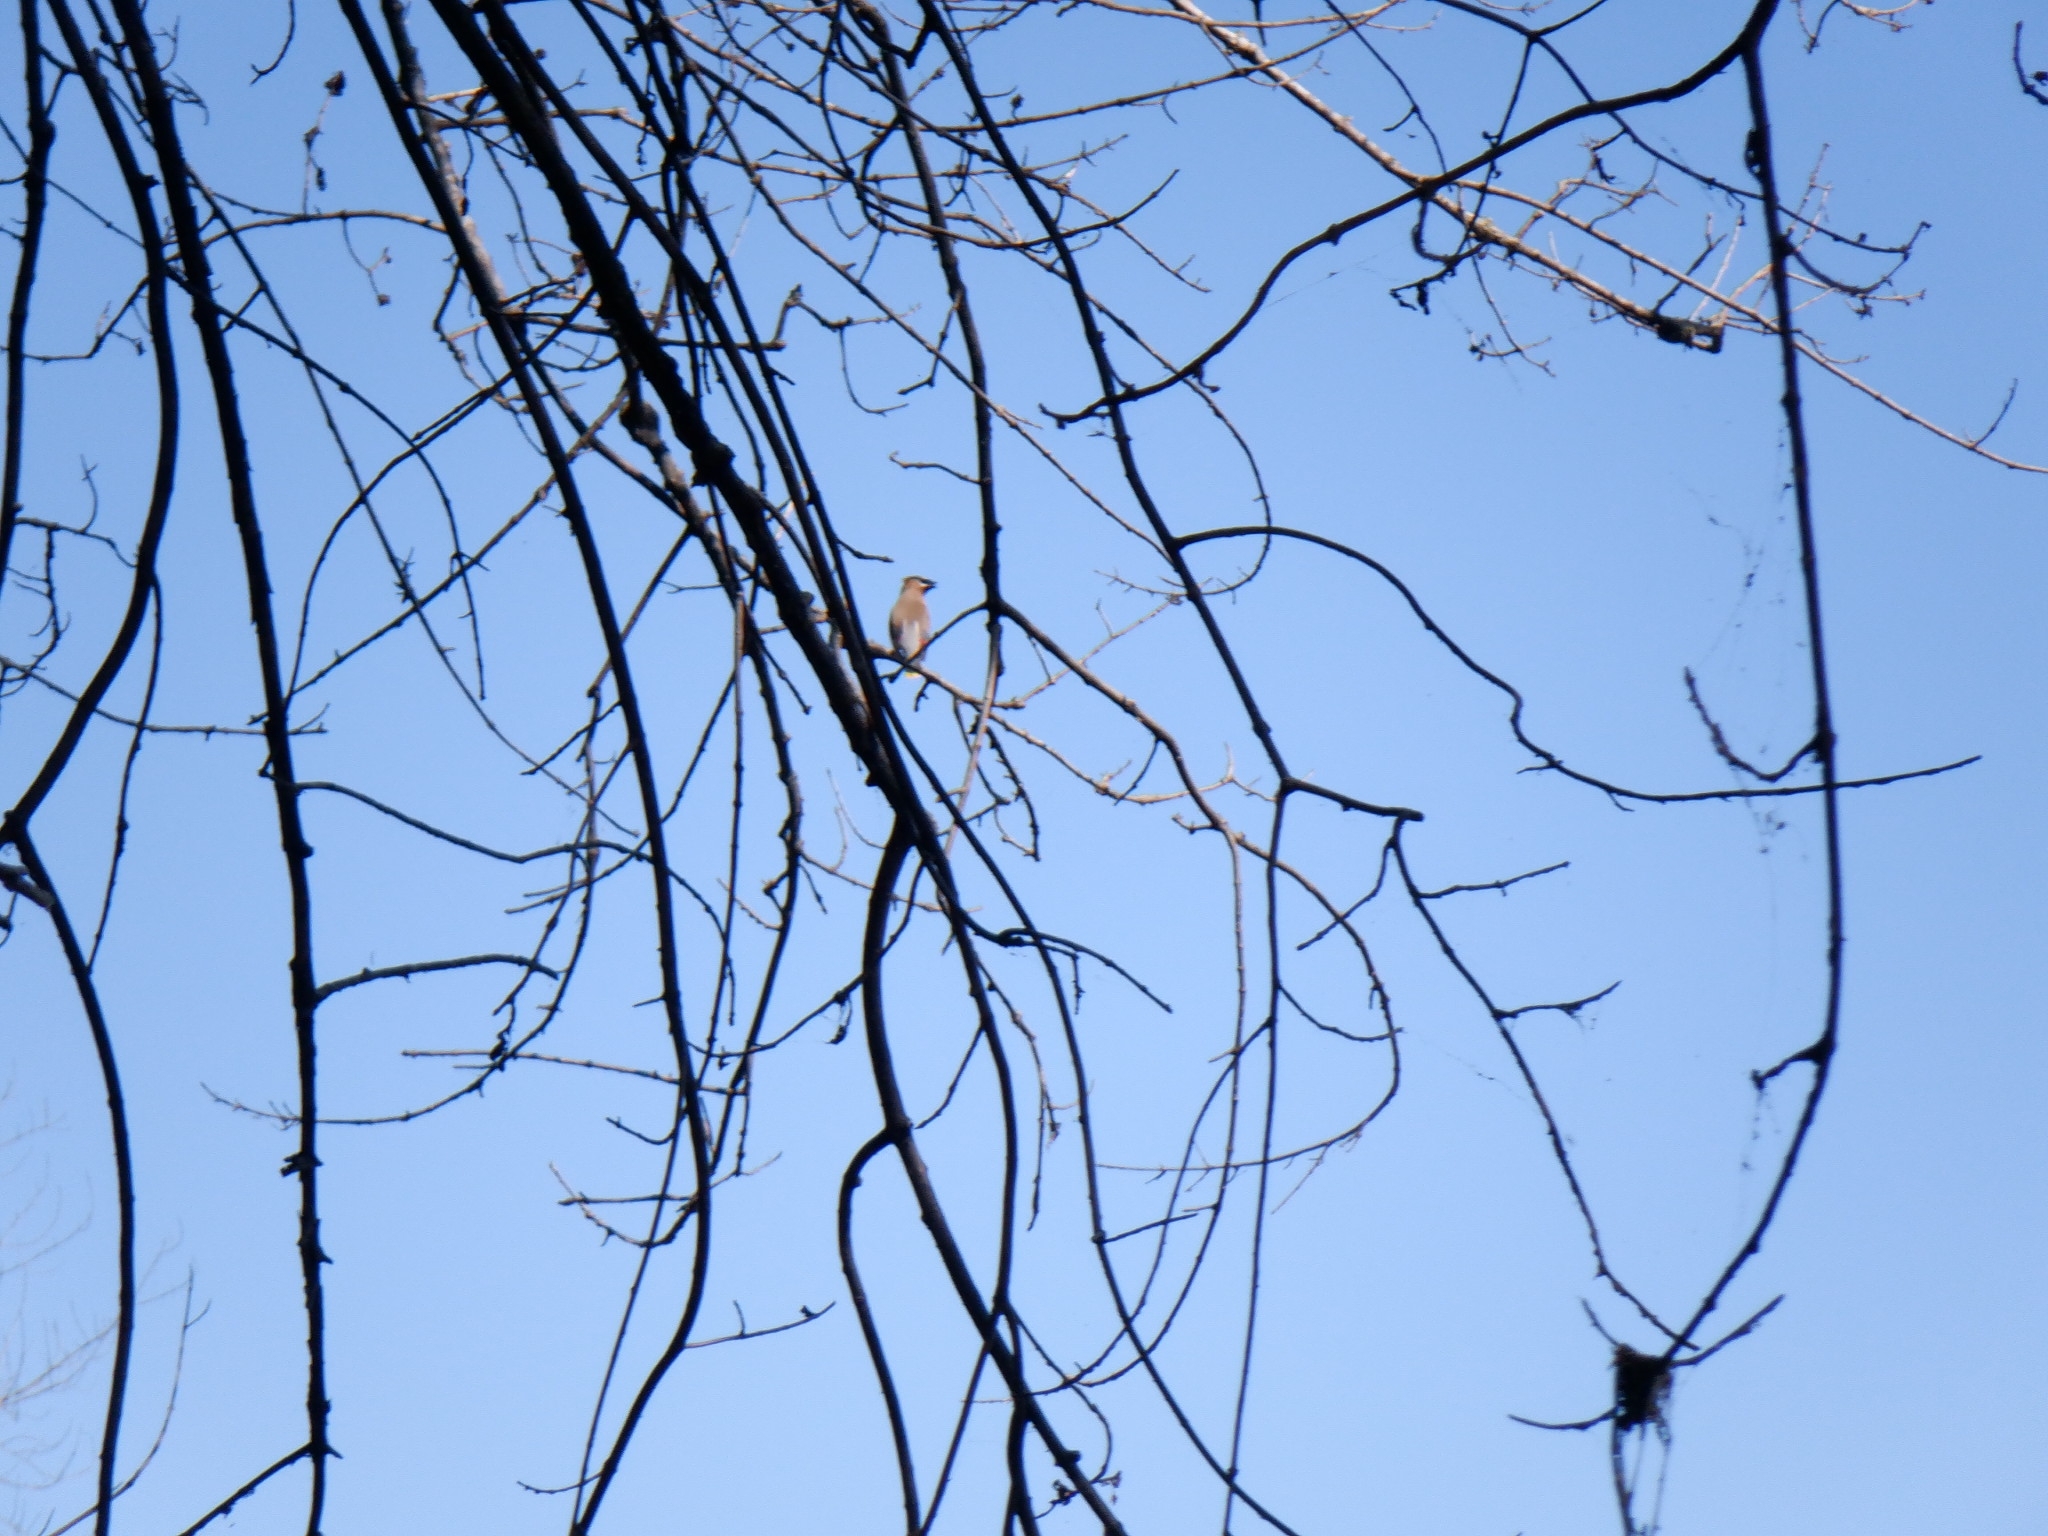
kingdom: Animalia
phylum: Chordata
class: Aves
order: Passeriformes
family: Bombycillidae
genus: Bombycilla
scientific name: Bombycilla cedrorum
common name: Cedar waxwing
